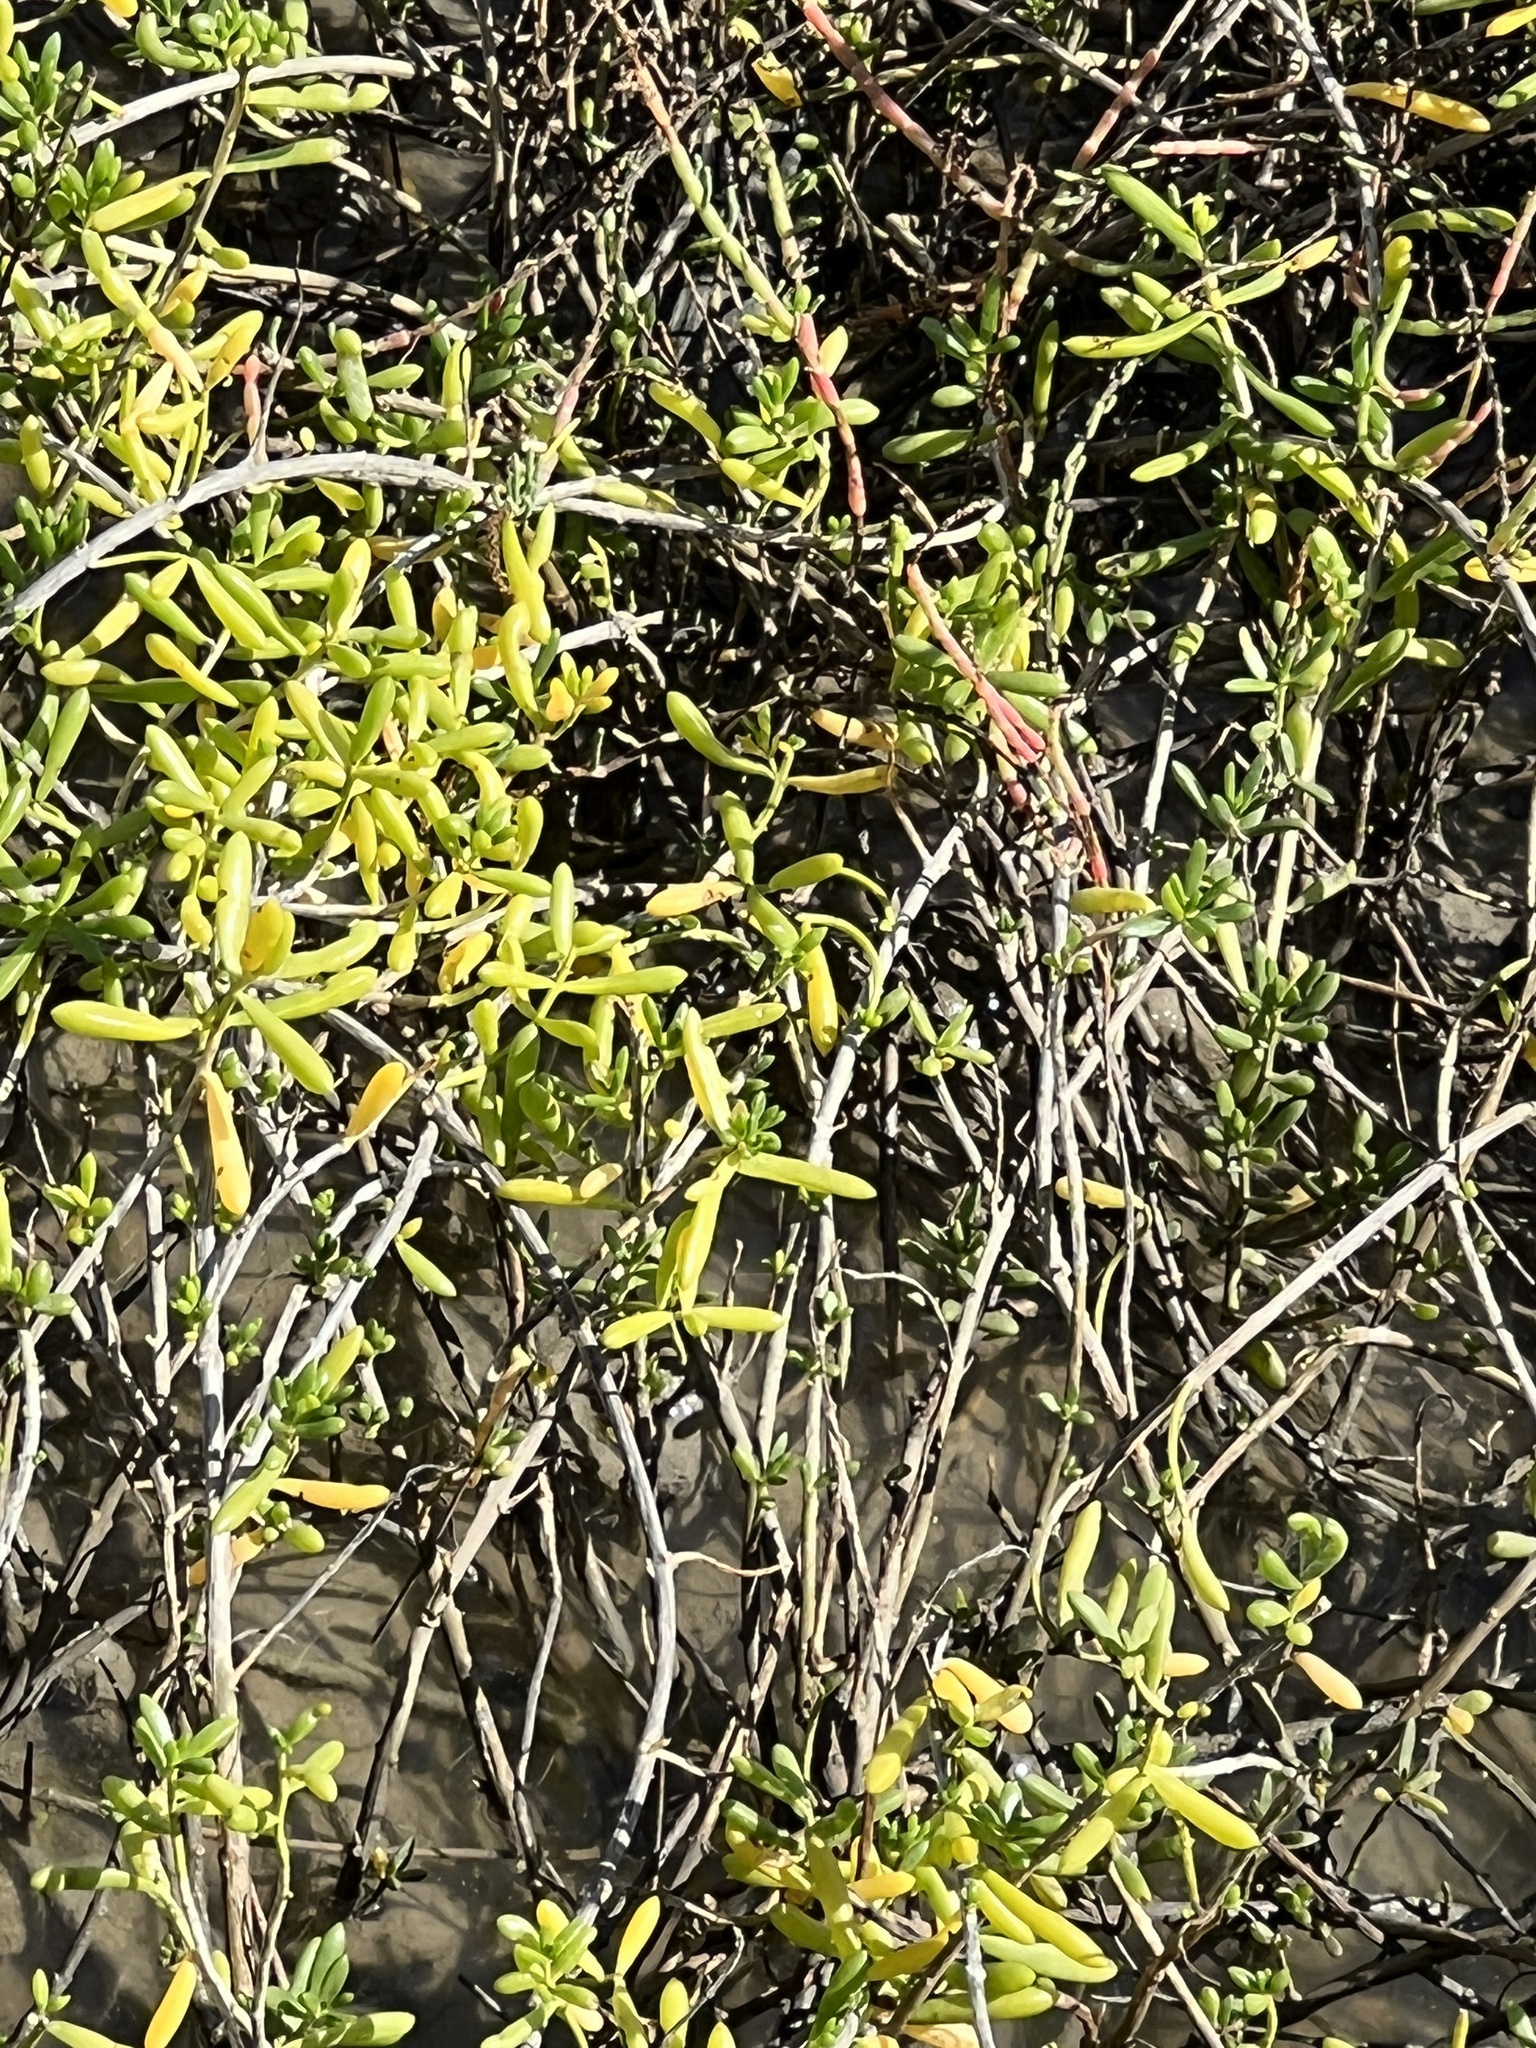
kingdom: Plantae
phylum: Tracheophyta
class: Magnoliopsida
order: Brassicales
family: Bataceae
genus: Batis
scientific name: Batis maritima
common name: Turtleweed
